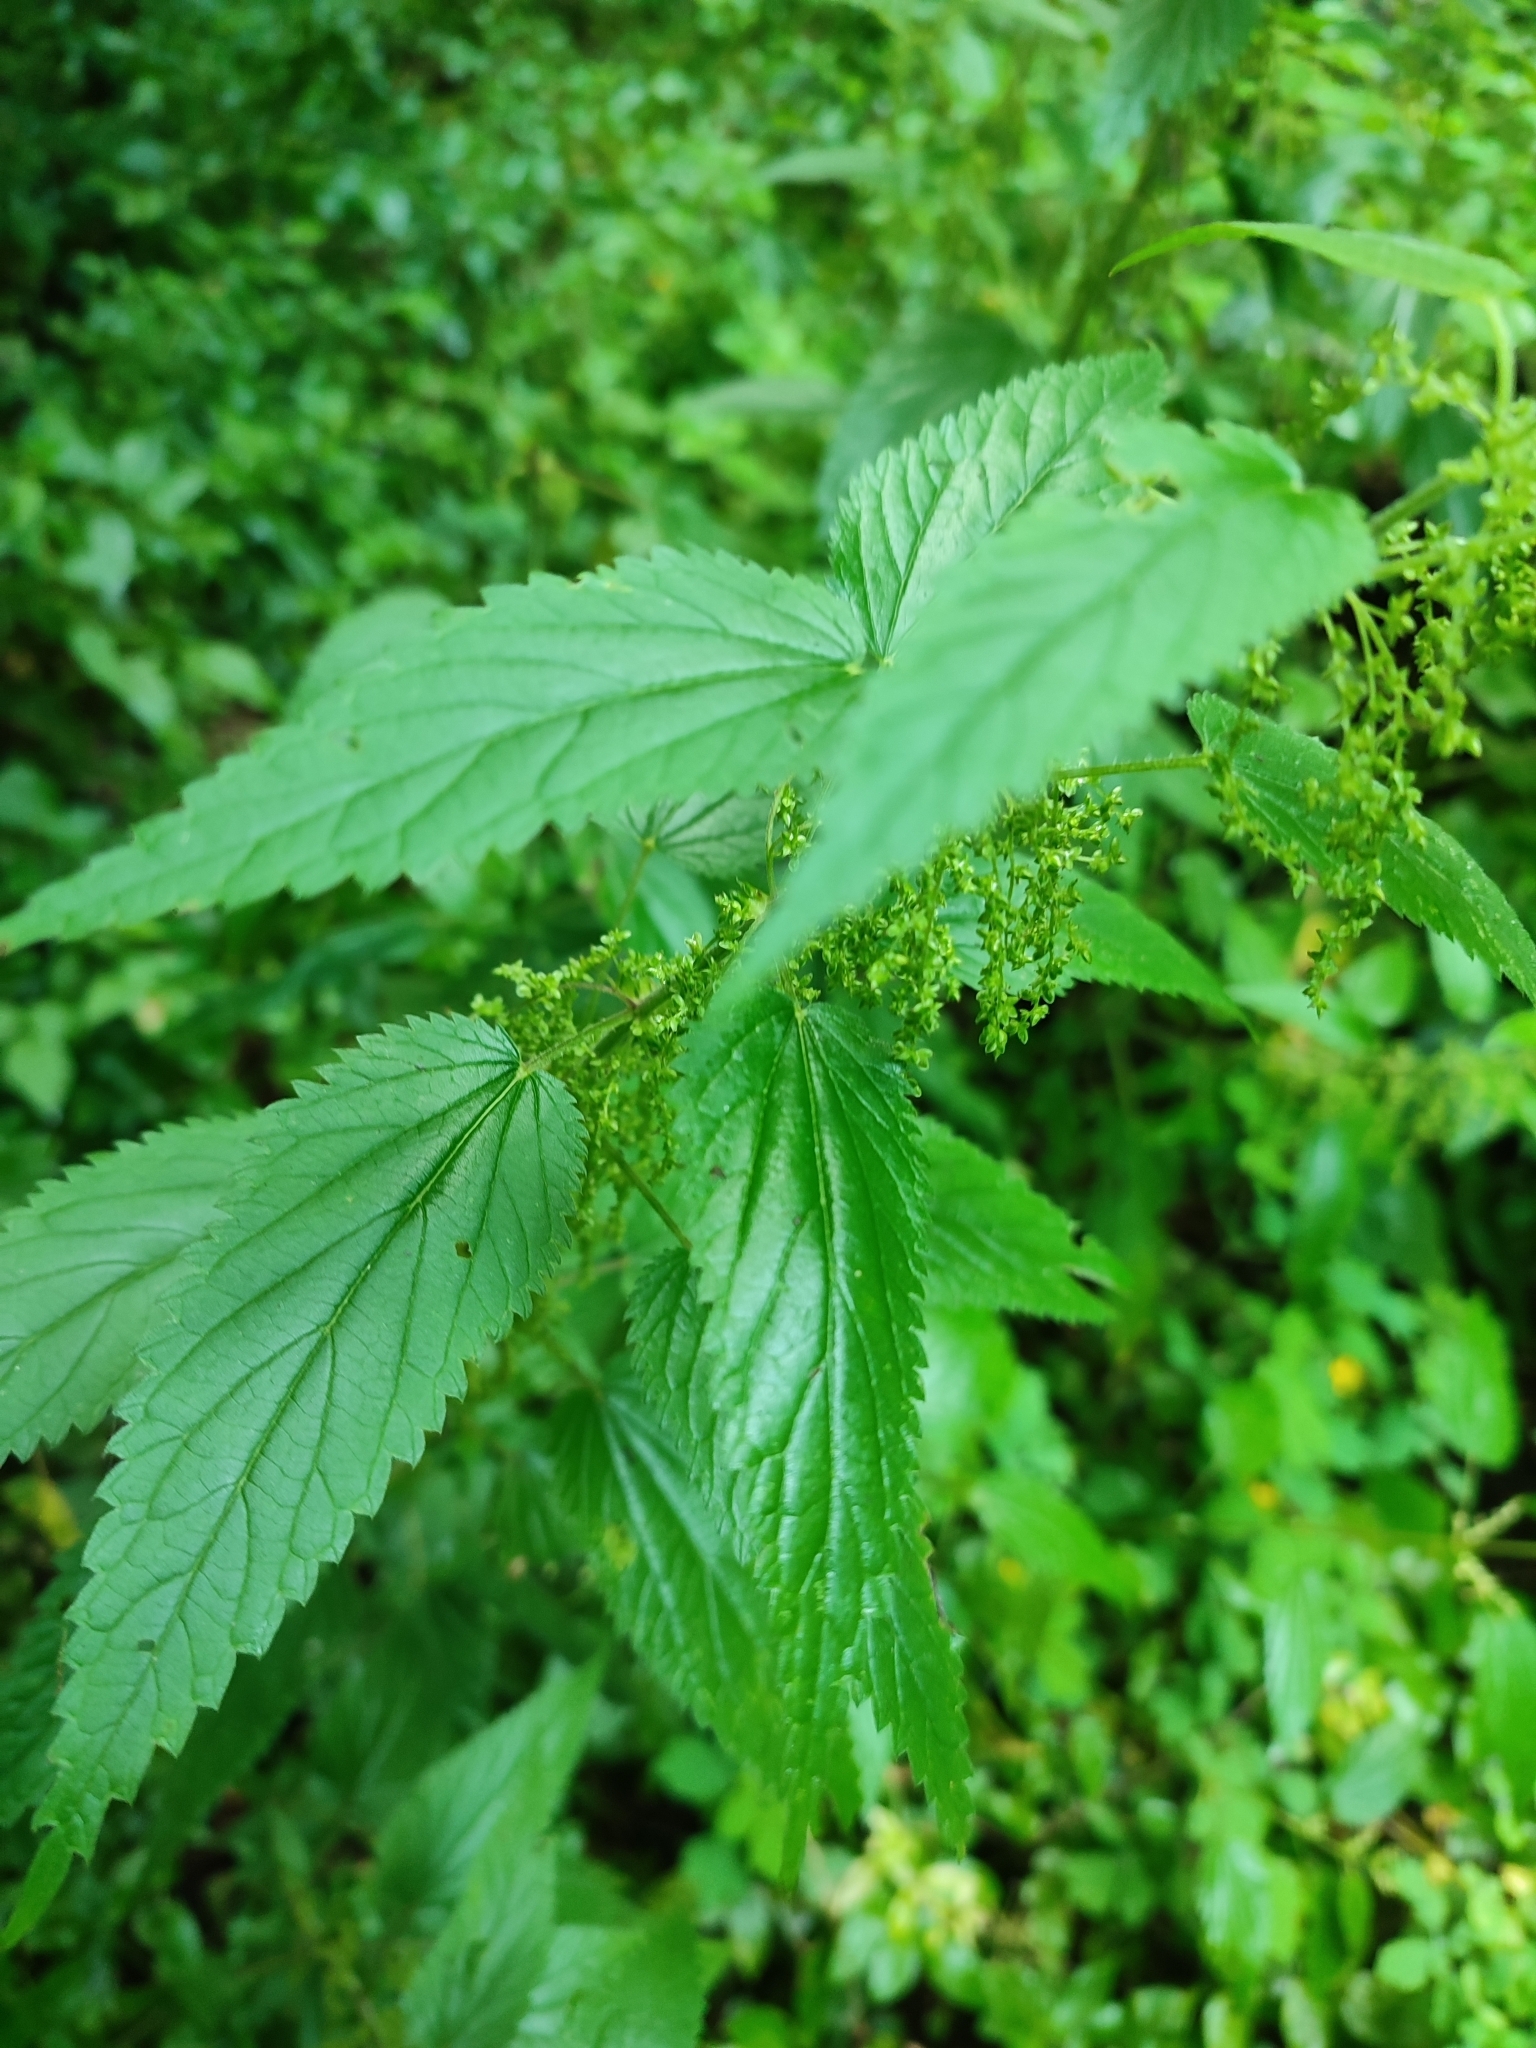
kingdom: Plantae
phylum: Tracheophyta
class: Magnoliopsida
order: Rosales
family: Urticaceae
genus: Urtica
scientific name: Urtica galeopsifolia
